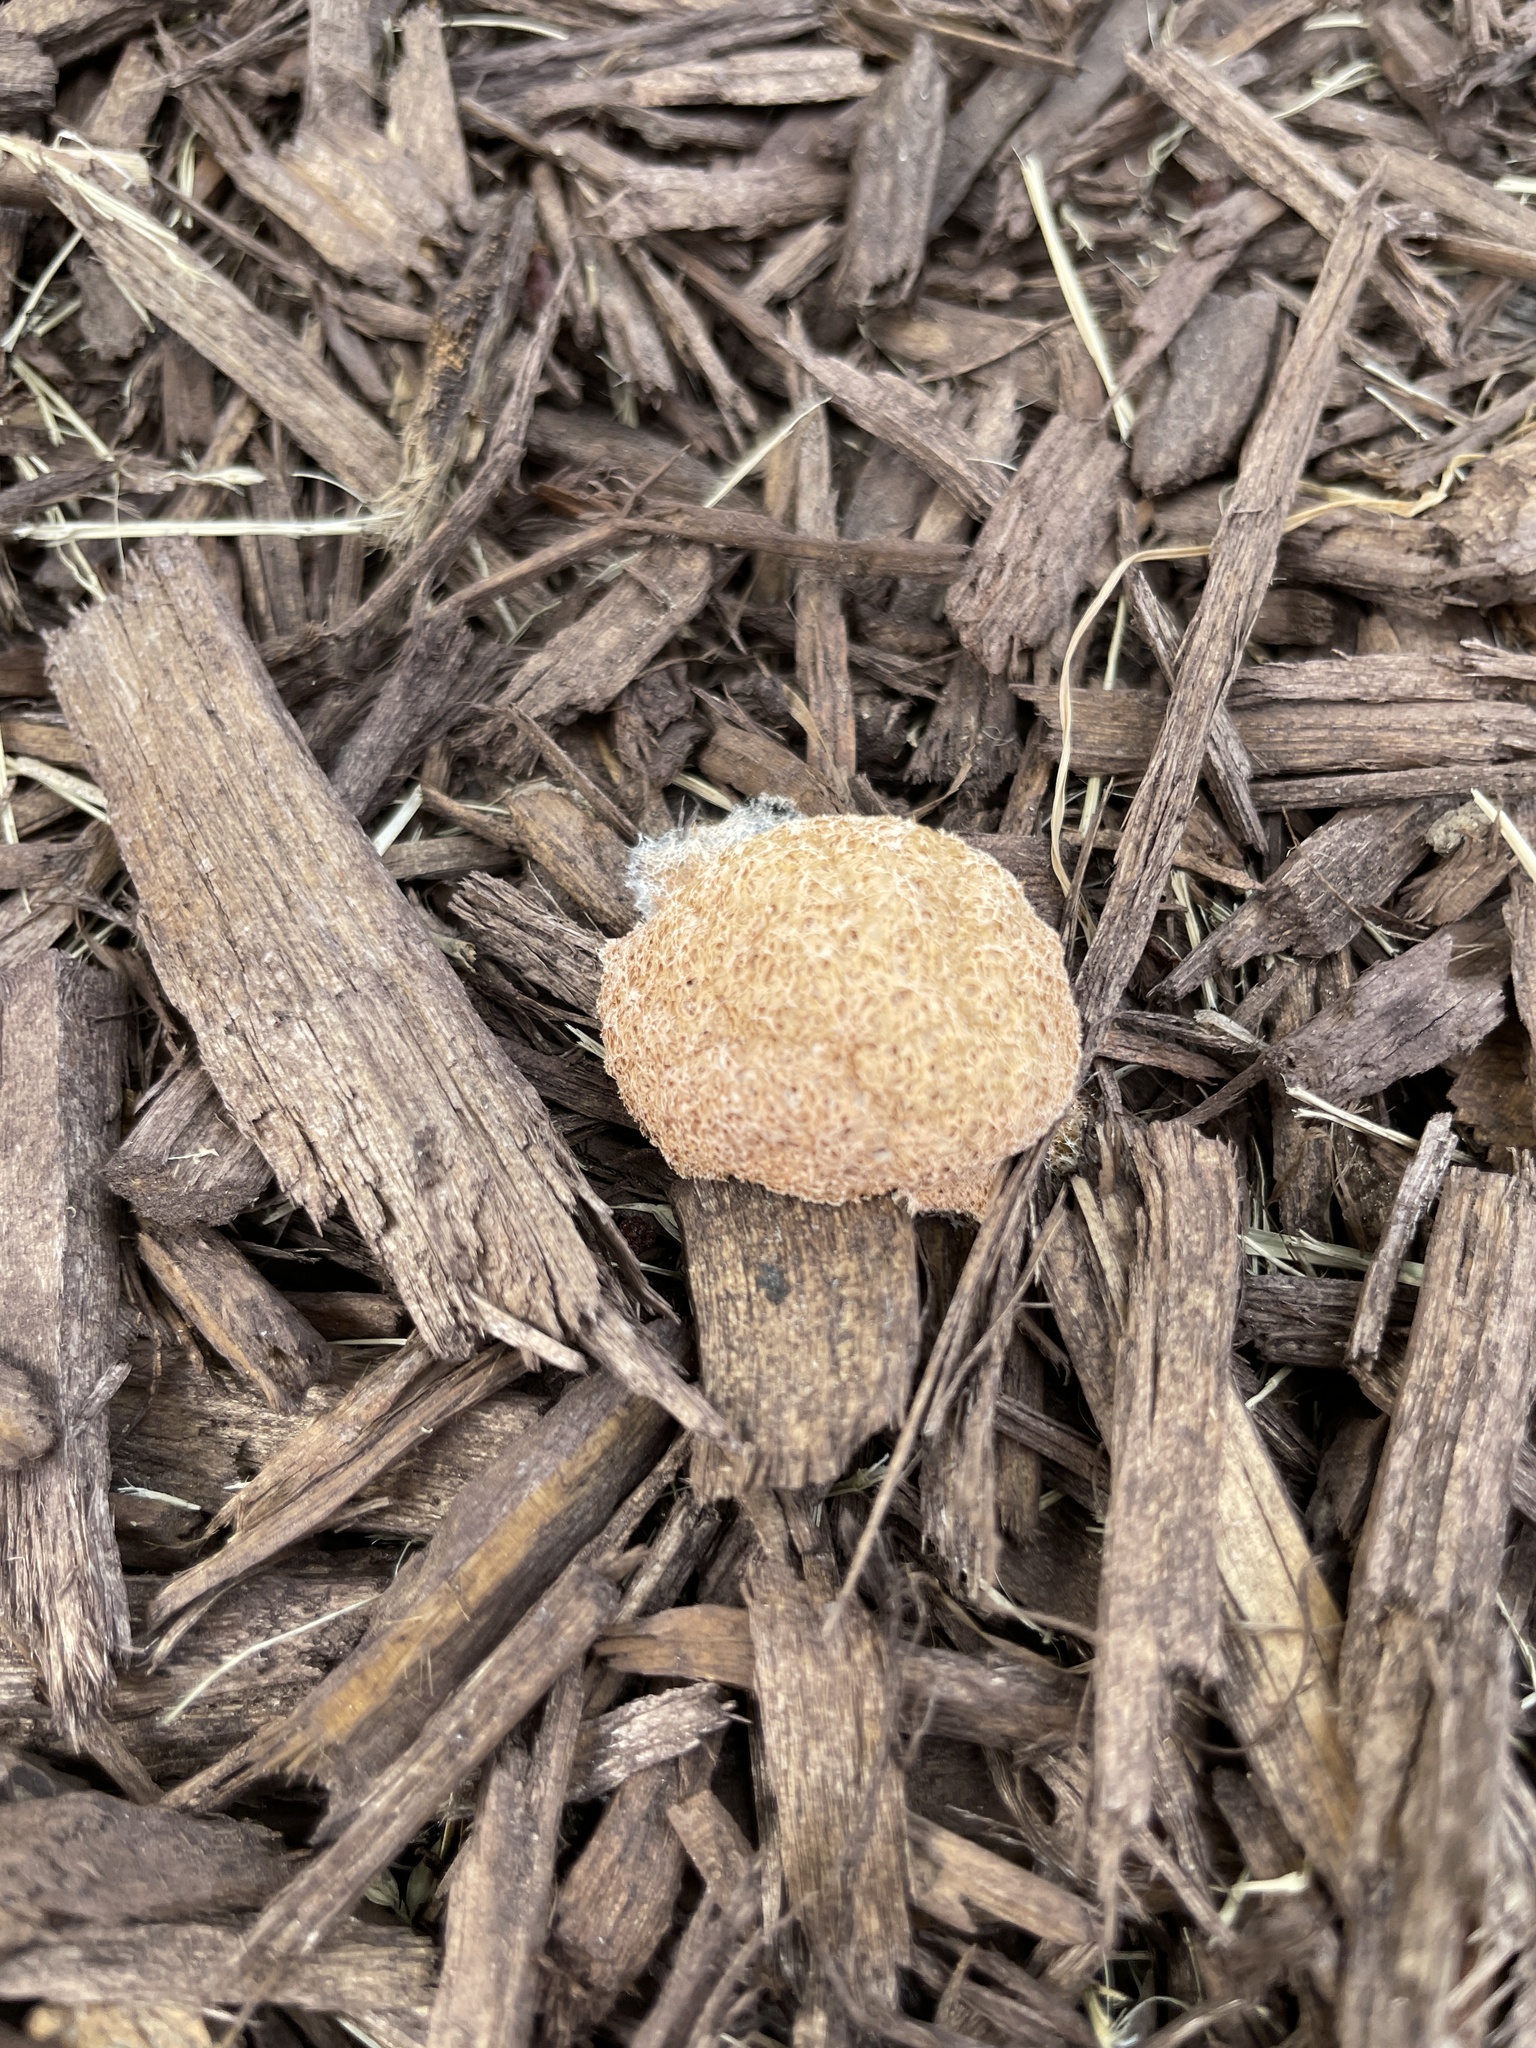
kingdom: Protozoa
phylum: Mycetozoa
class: Myxomycetes
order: Physarales
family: Physaraceae
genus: Fuligo
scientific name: Fuligo septica
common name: Dog vomit slime mold
